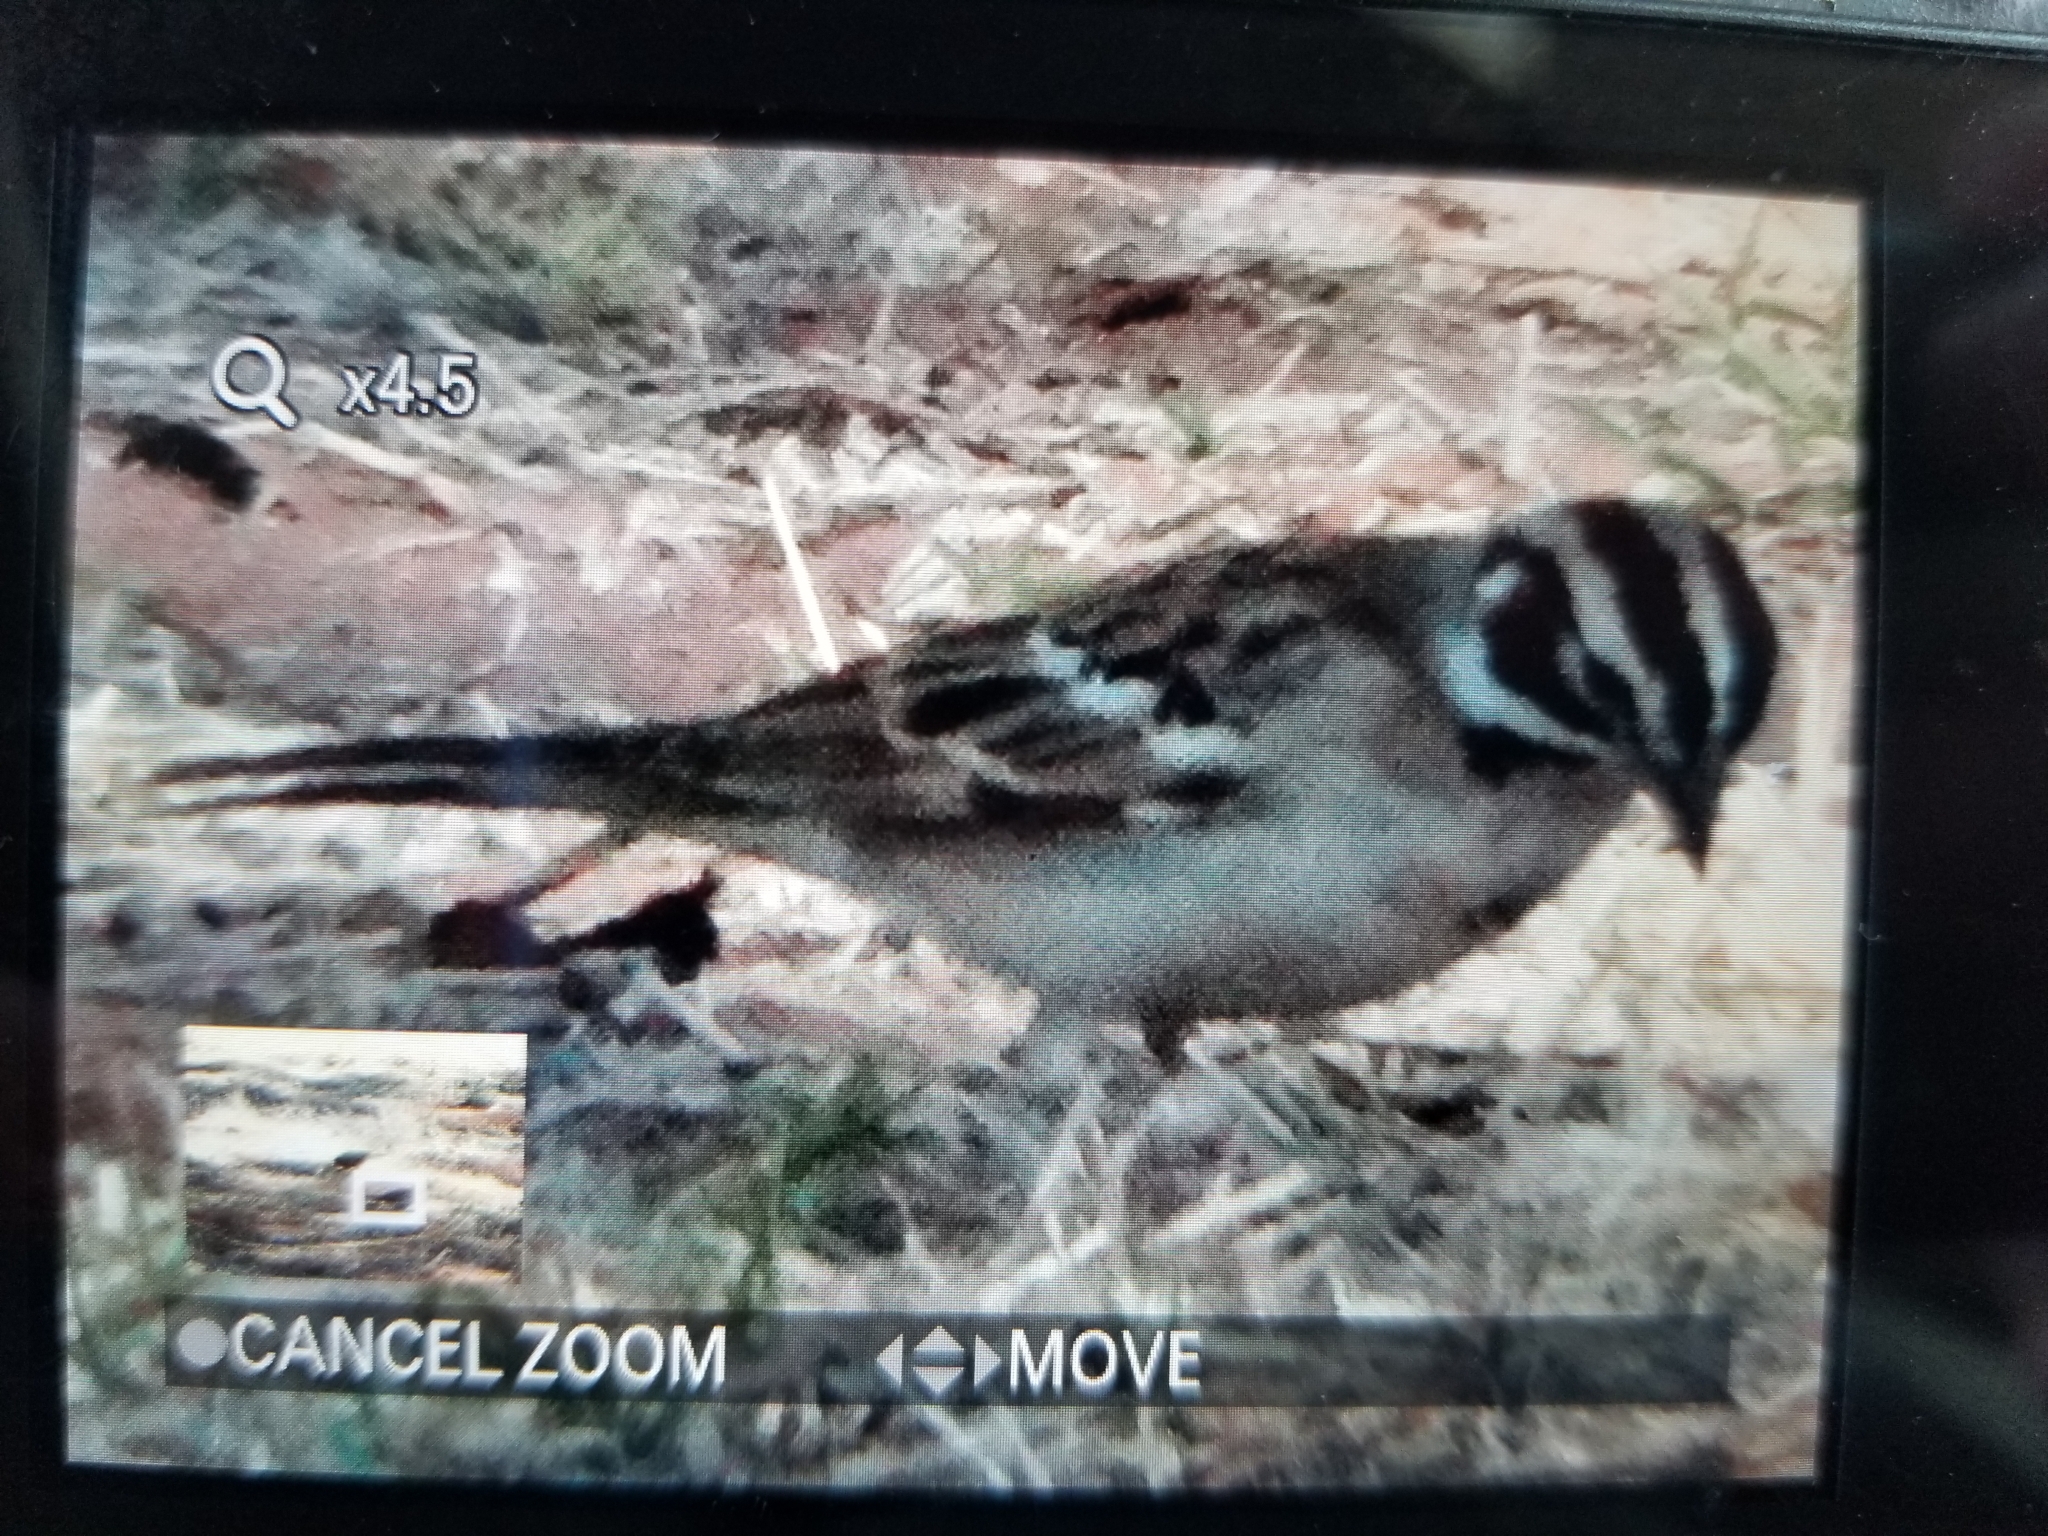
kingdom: Animalia
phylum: Chordata
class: Aves
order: Passeriformes
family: Passerellidae
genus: Chondestes
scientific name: Chondestes grammacus
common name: Lark sparrow
